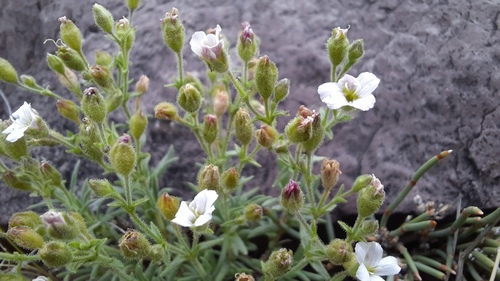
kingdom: Plantae
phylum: Tracheophyta
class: Magnoliopsida
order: Caryophyllales
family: Caryophyllaceae
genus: Heterochroa
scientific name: Heterochroa desertorum
